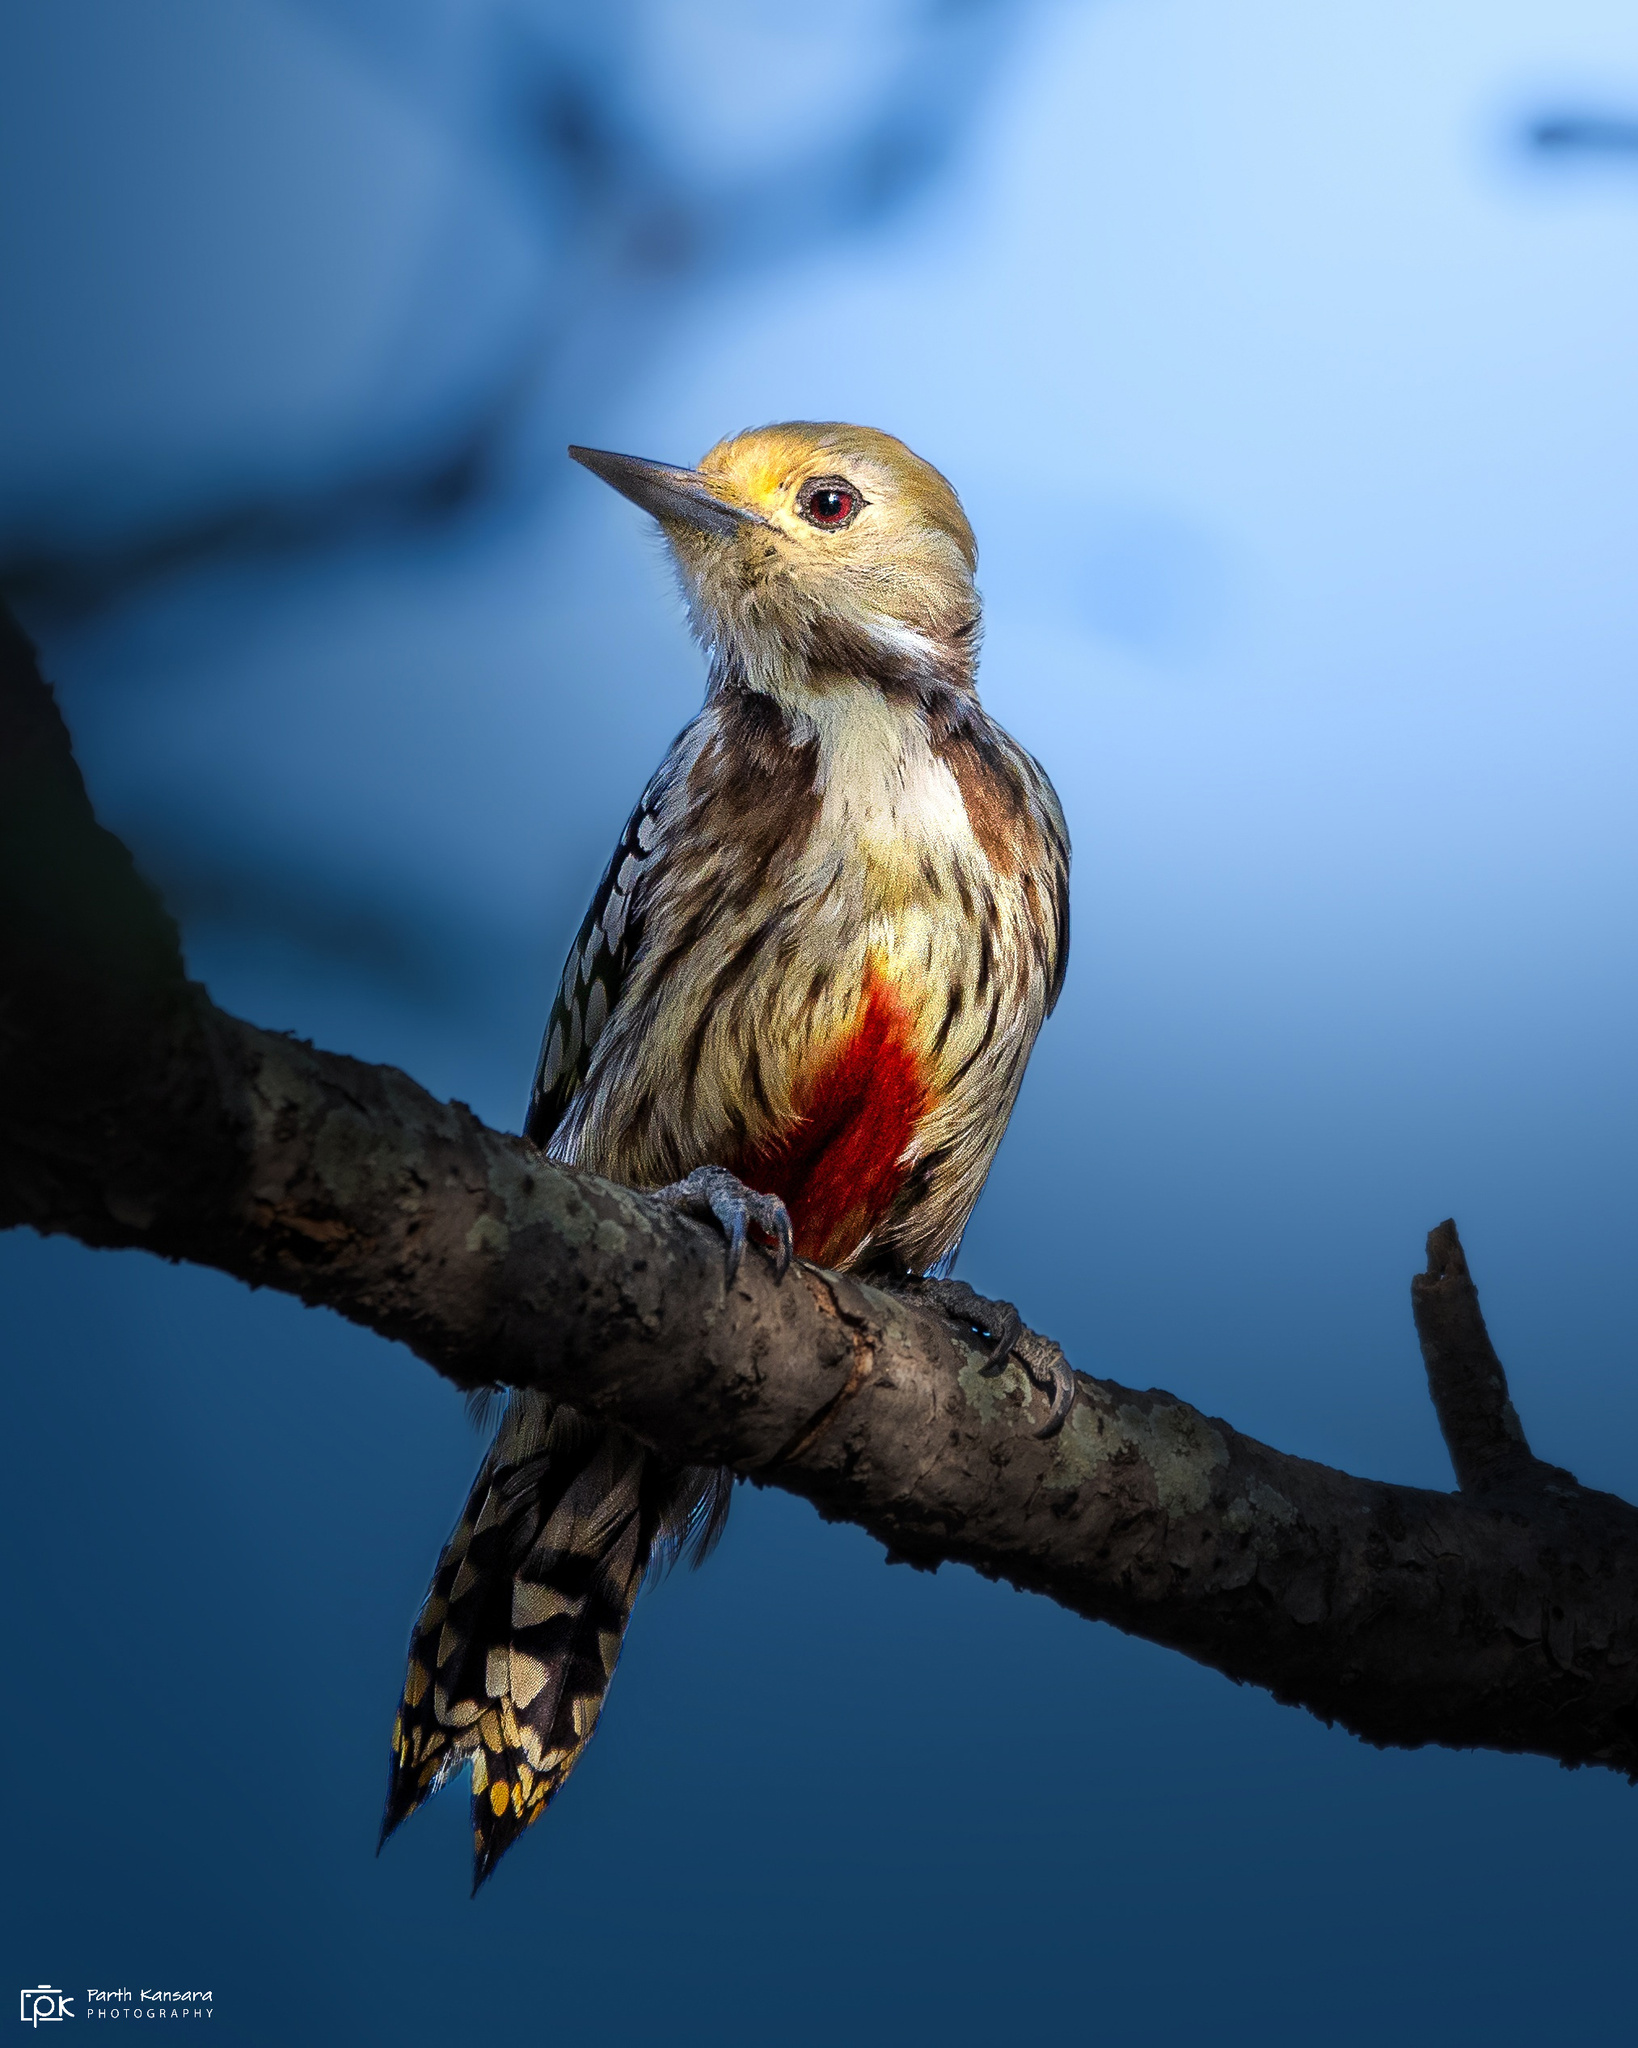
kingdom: Animalia
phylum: Chordata
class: Aves
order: Piciformes
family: Picidae
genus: Leiopicus
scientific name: Leiopicus mahrattensis
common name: Yellow-crowned woodpecker
